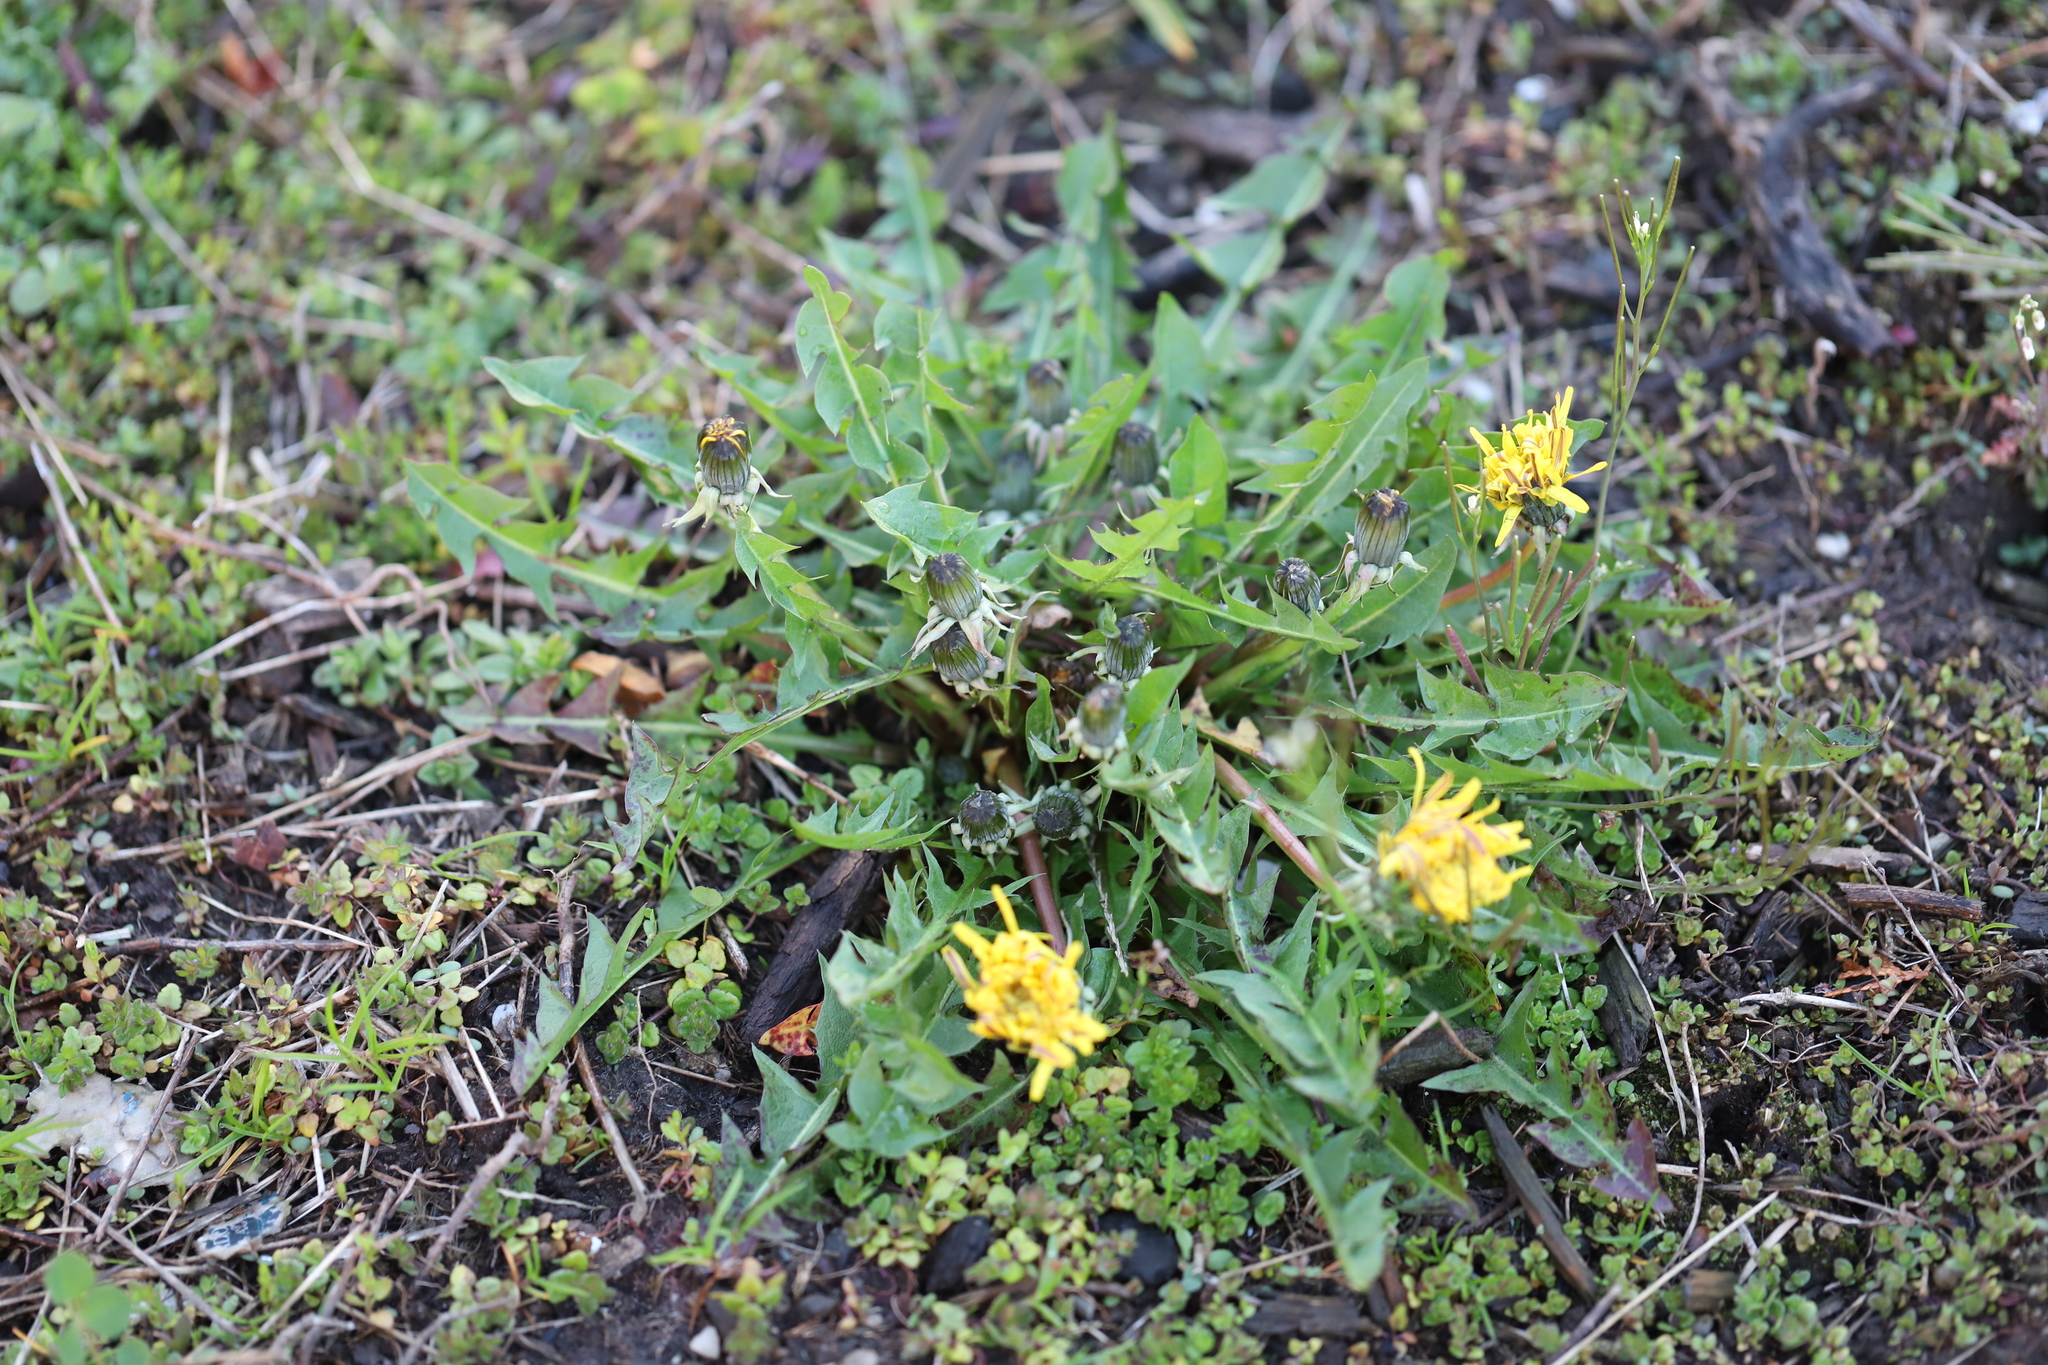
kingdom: Plantae
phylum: Tracheophyta
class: Magnoliopsida
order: Asterales
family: Asteraceae
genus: Taraxacum
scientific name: Taraxacum officinale
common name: Common dandelion
